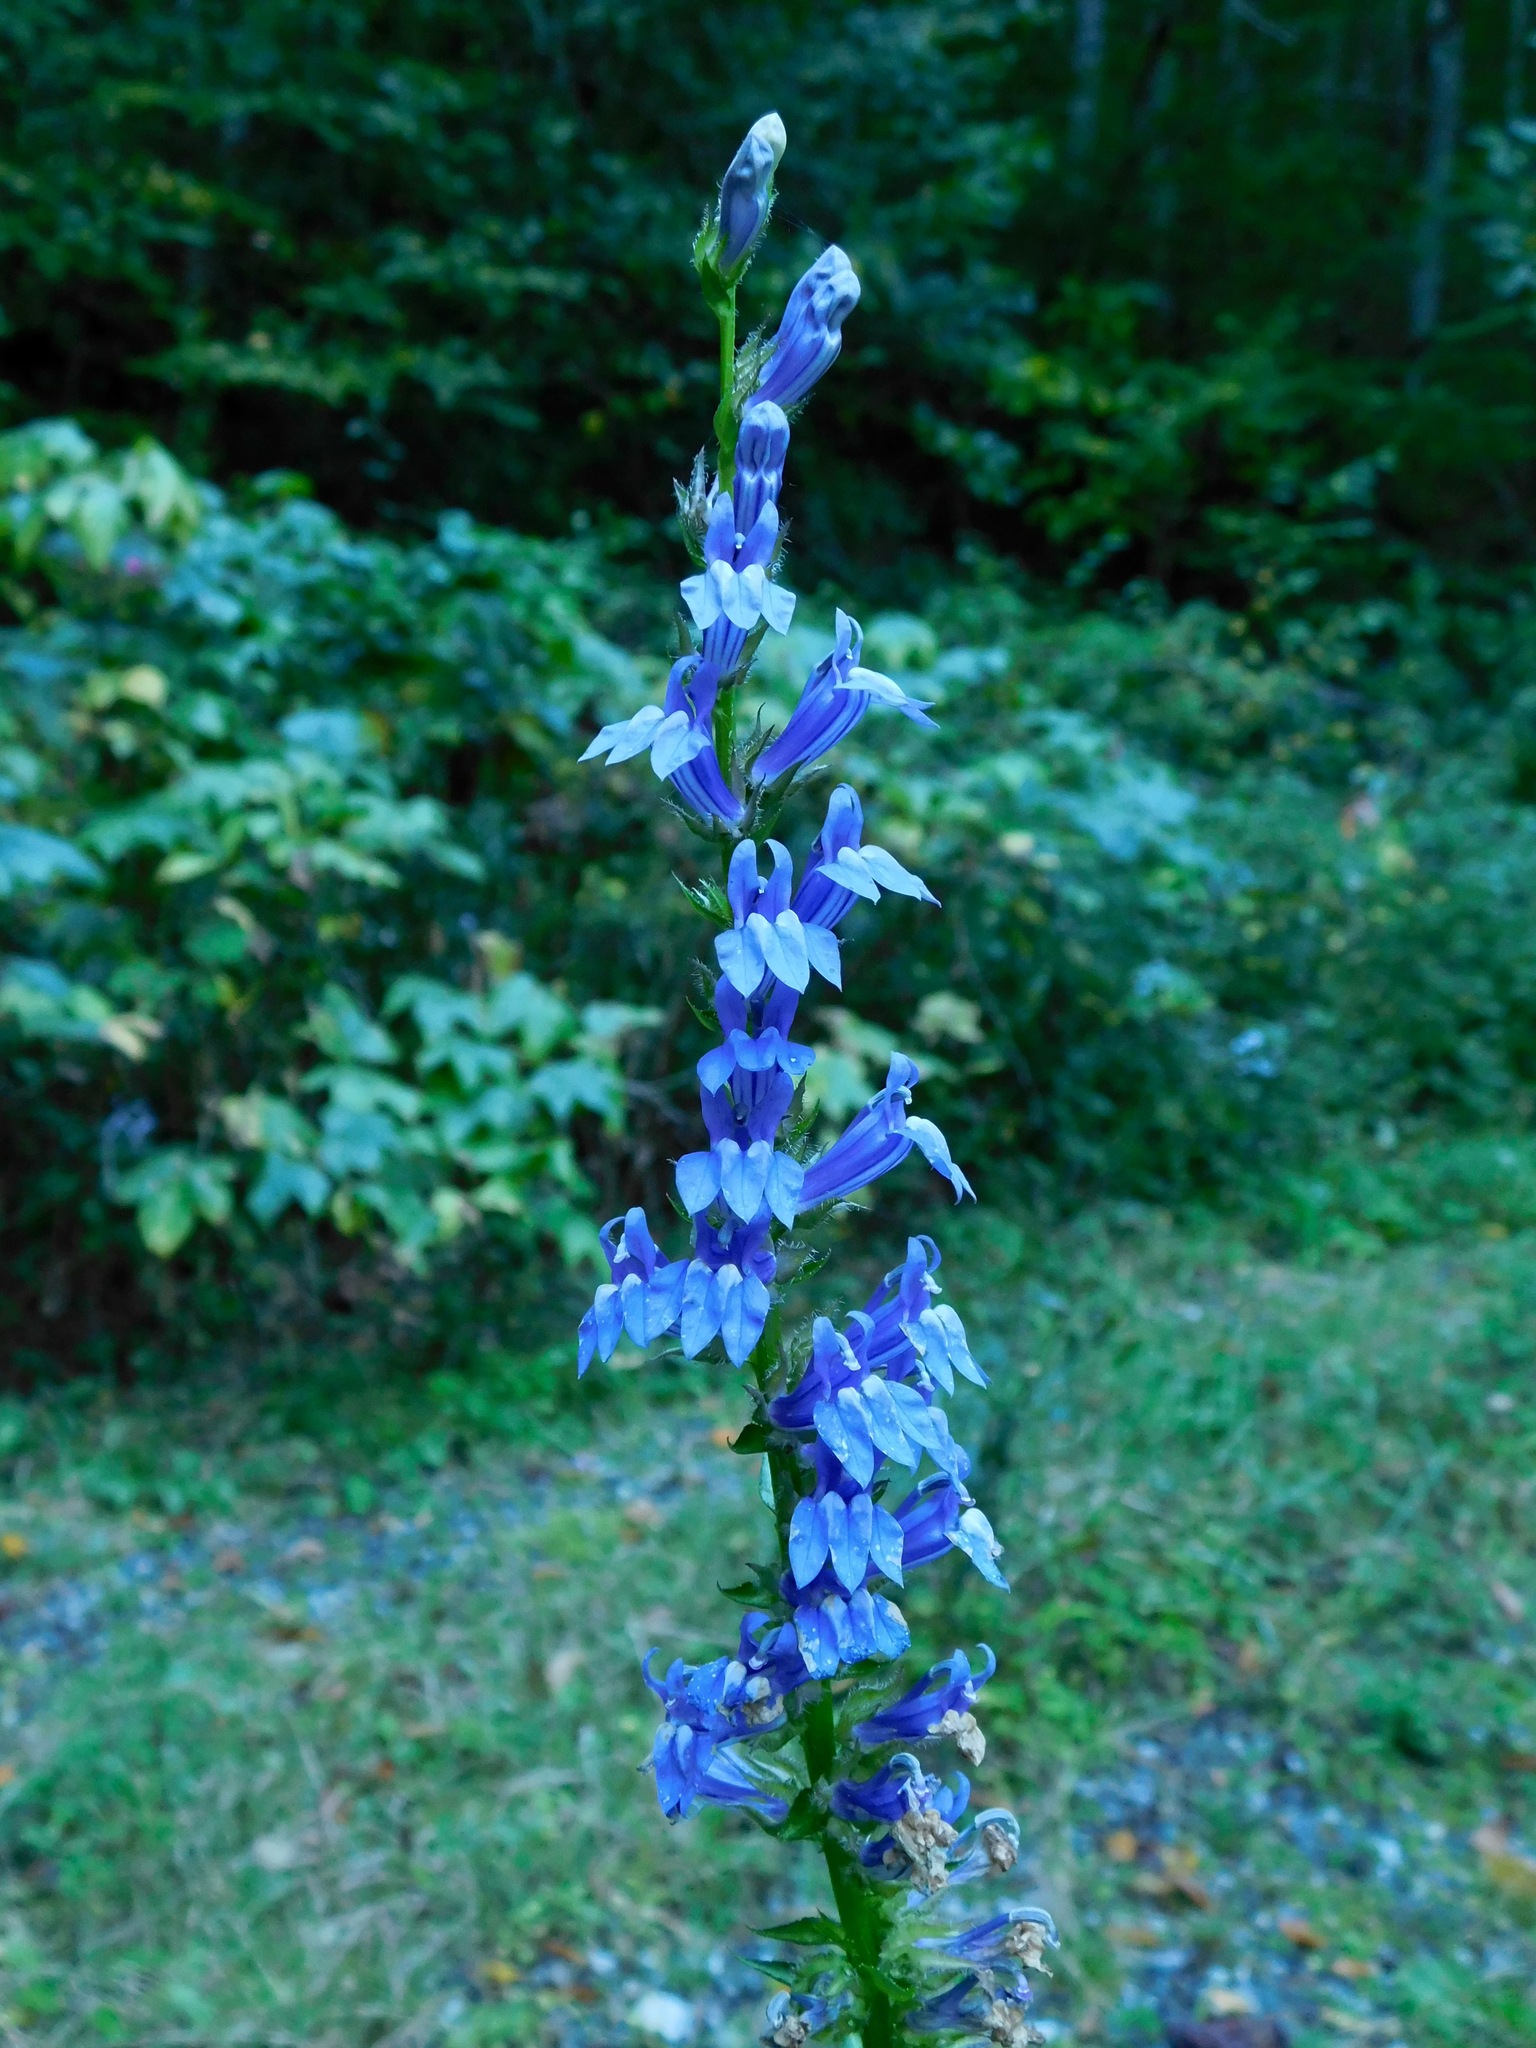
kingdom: Plantae
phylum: Tracheophyta
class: Magnoliopsida
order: Asterales
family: Campanulaceae
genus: Lobelia
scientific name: Lobelia siphilitica
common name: Great lobelia
